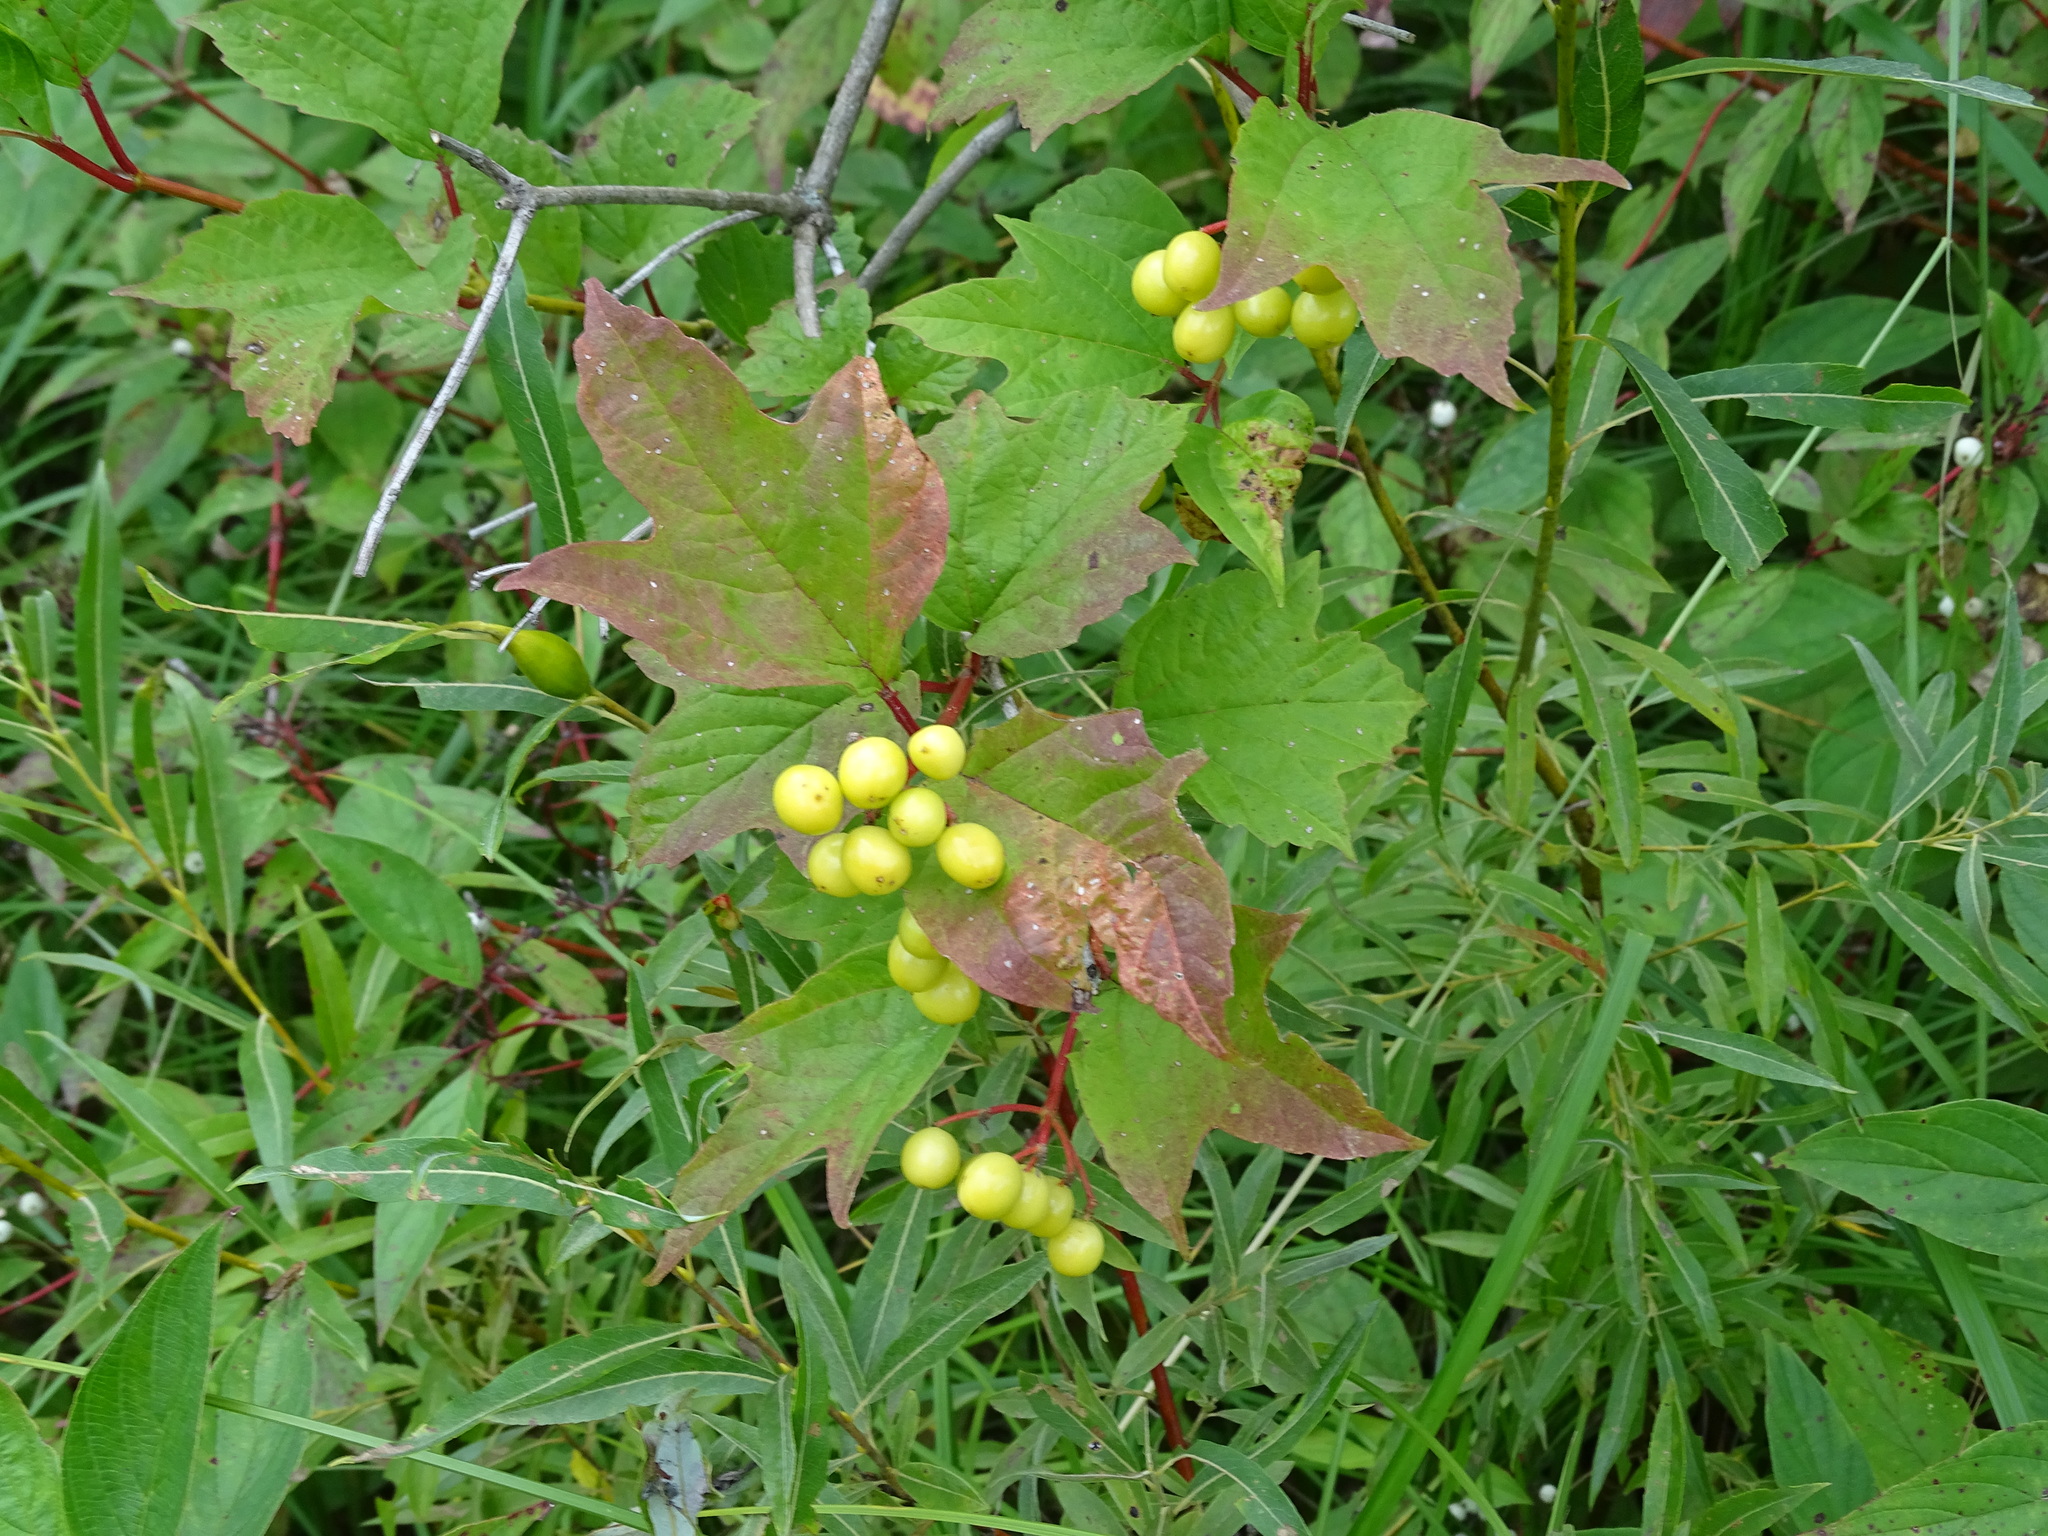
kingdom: Plantae
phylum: Tracheophyta
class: Magnoliopsida
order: Dipsacales
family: Viburnaceae
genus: Viburnum
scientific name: Viburnum opulus
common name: Guelder-rose
